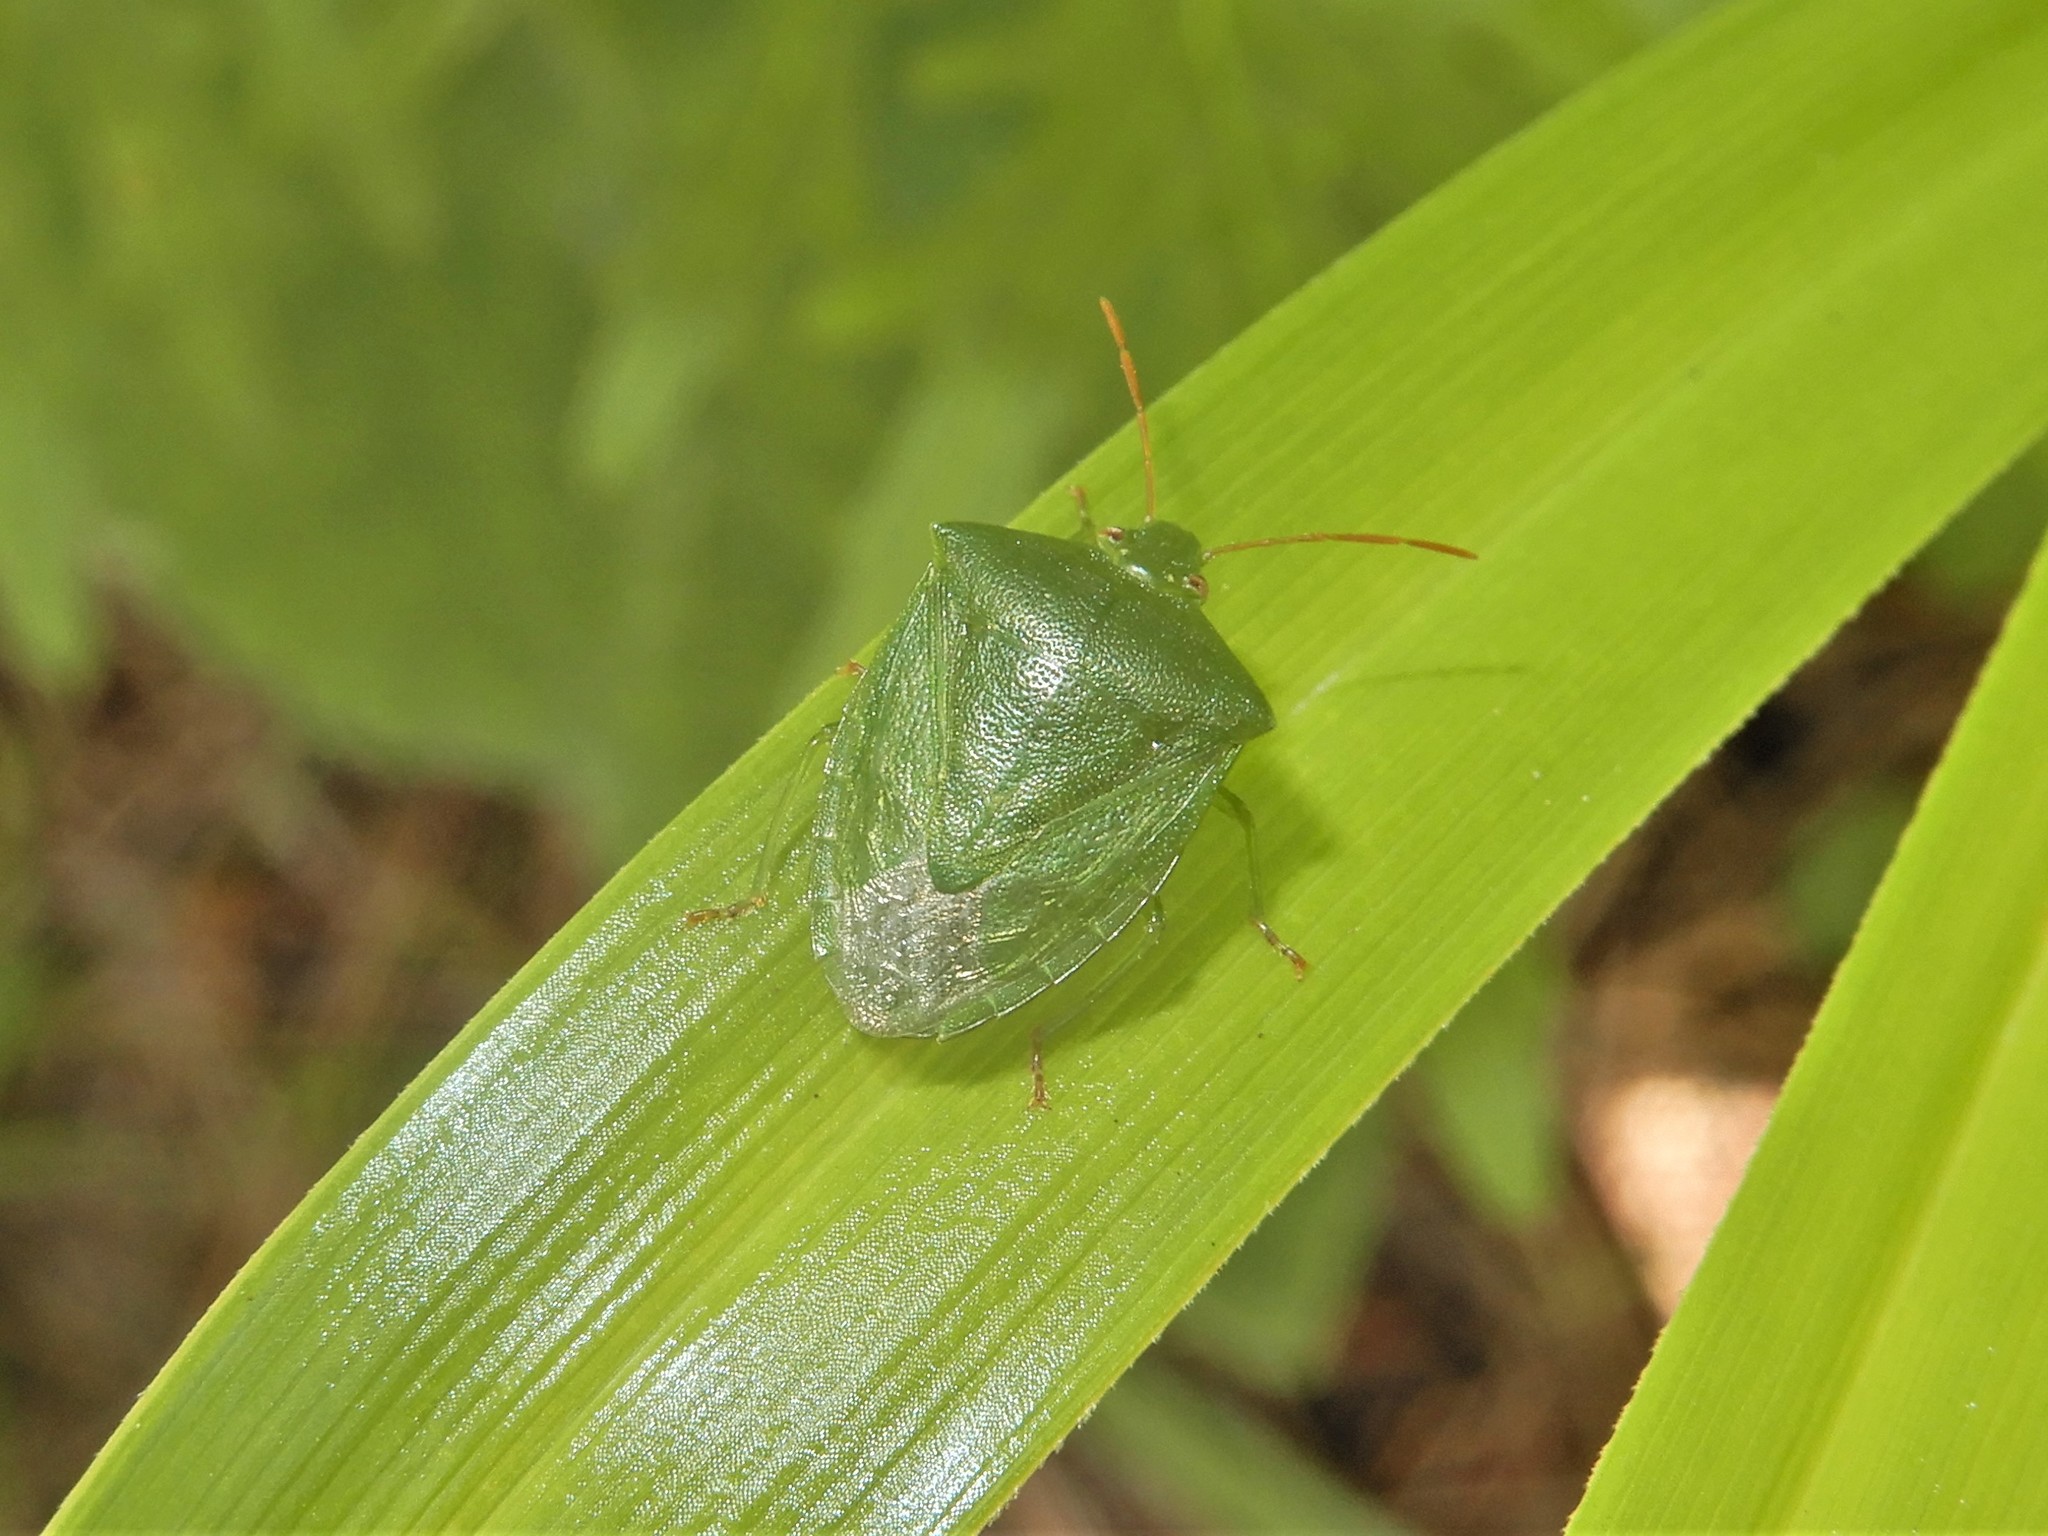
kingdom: Animalia
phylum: Arthropoda
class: Insecta
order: Hemiptera
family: Pentatomidae
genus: Cuspicona
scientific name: Cuspicona simplex
